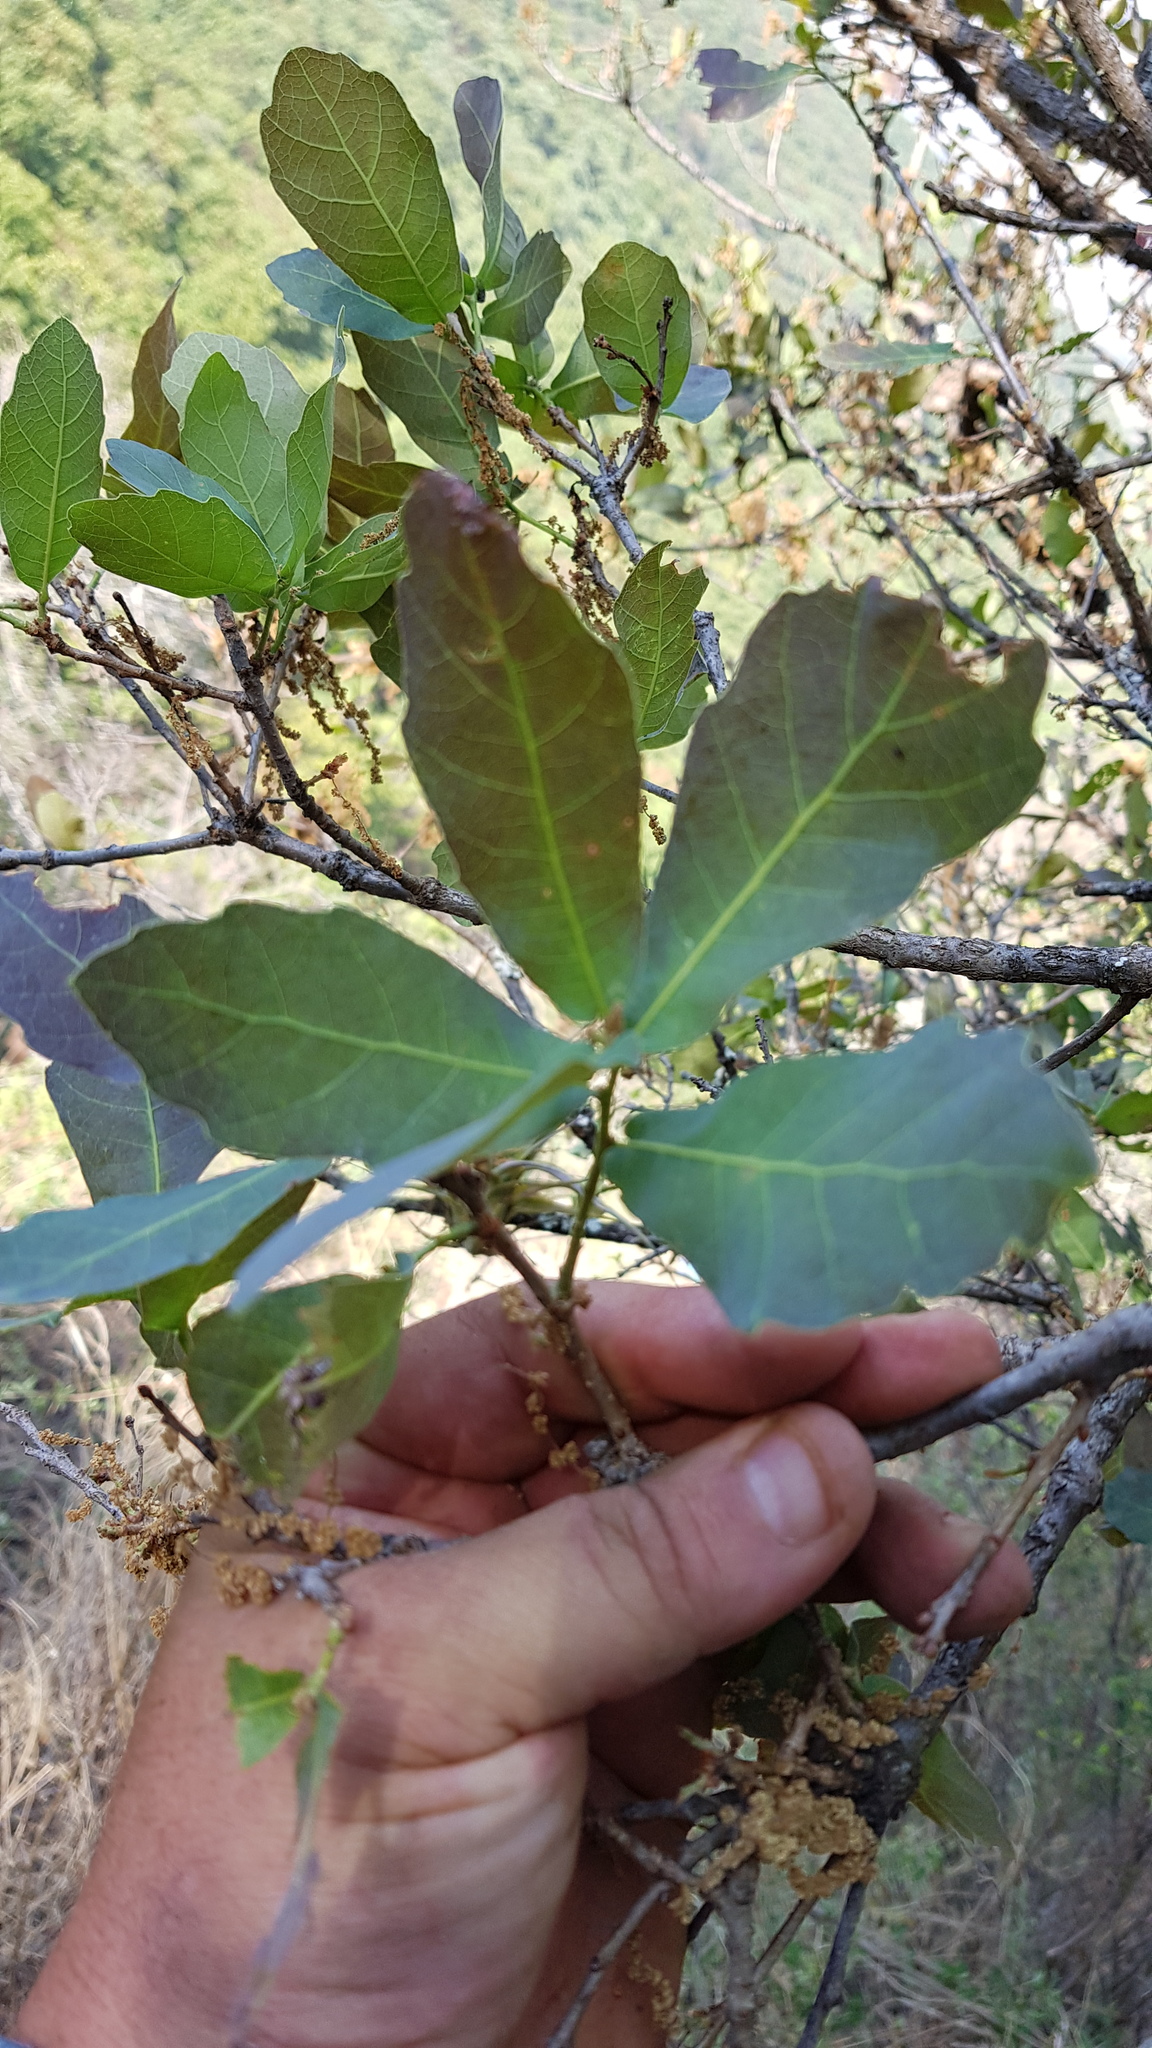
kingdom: Plantae
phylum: Tracheophyta
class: Magnoliopsida
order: Fagales
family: Fagaceae
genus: Quercus
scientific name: Quercus glaucoides
